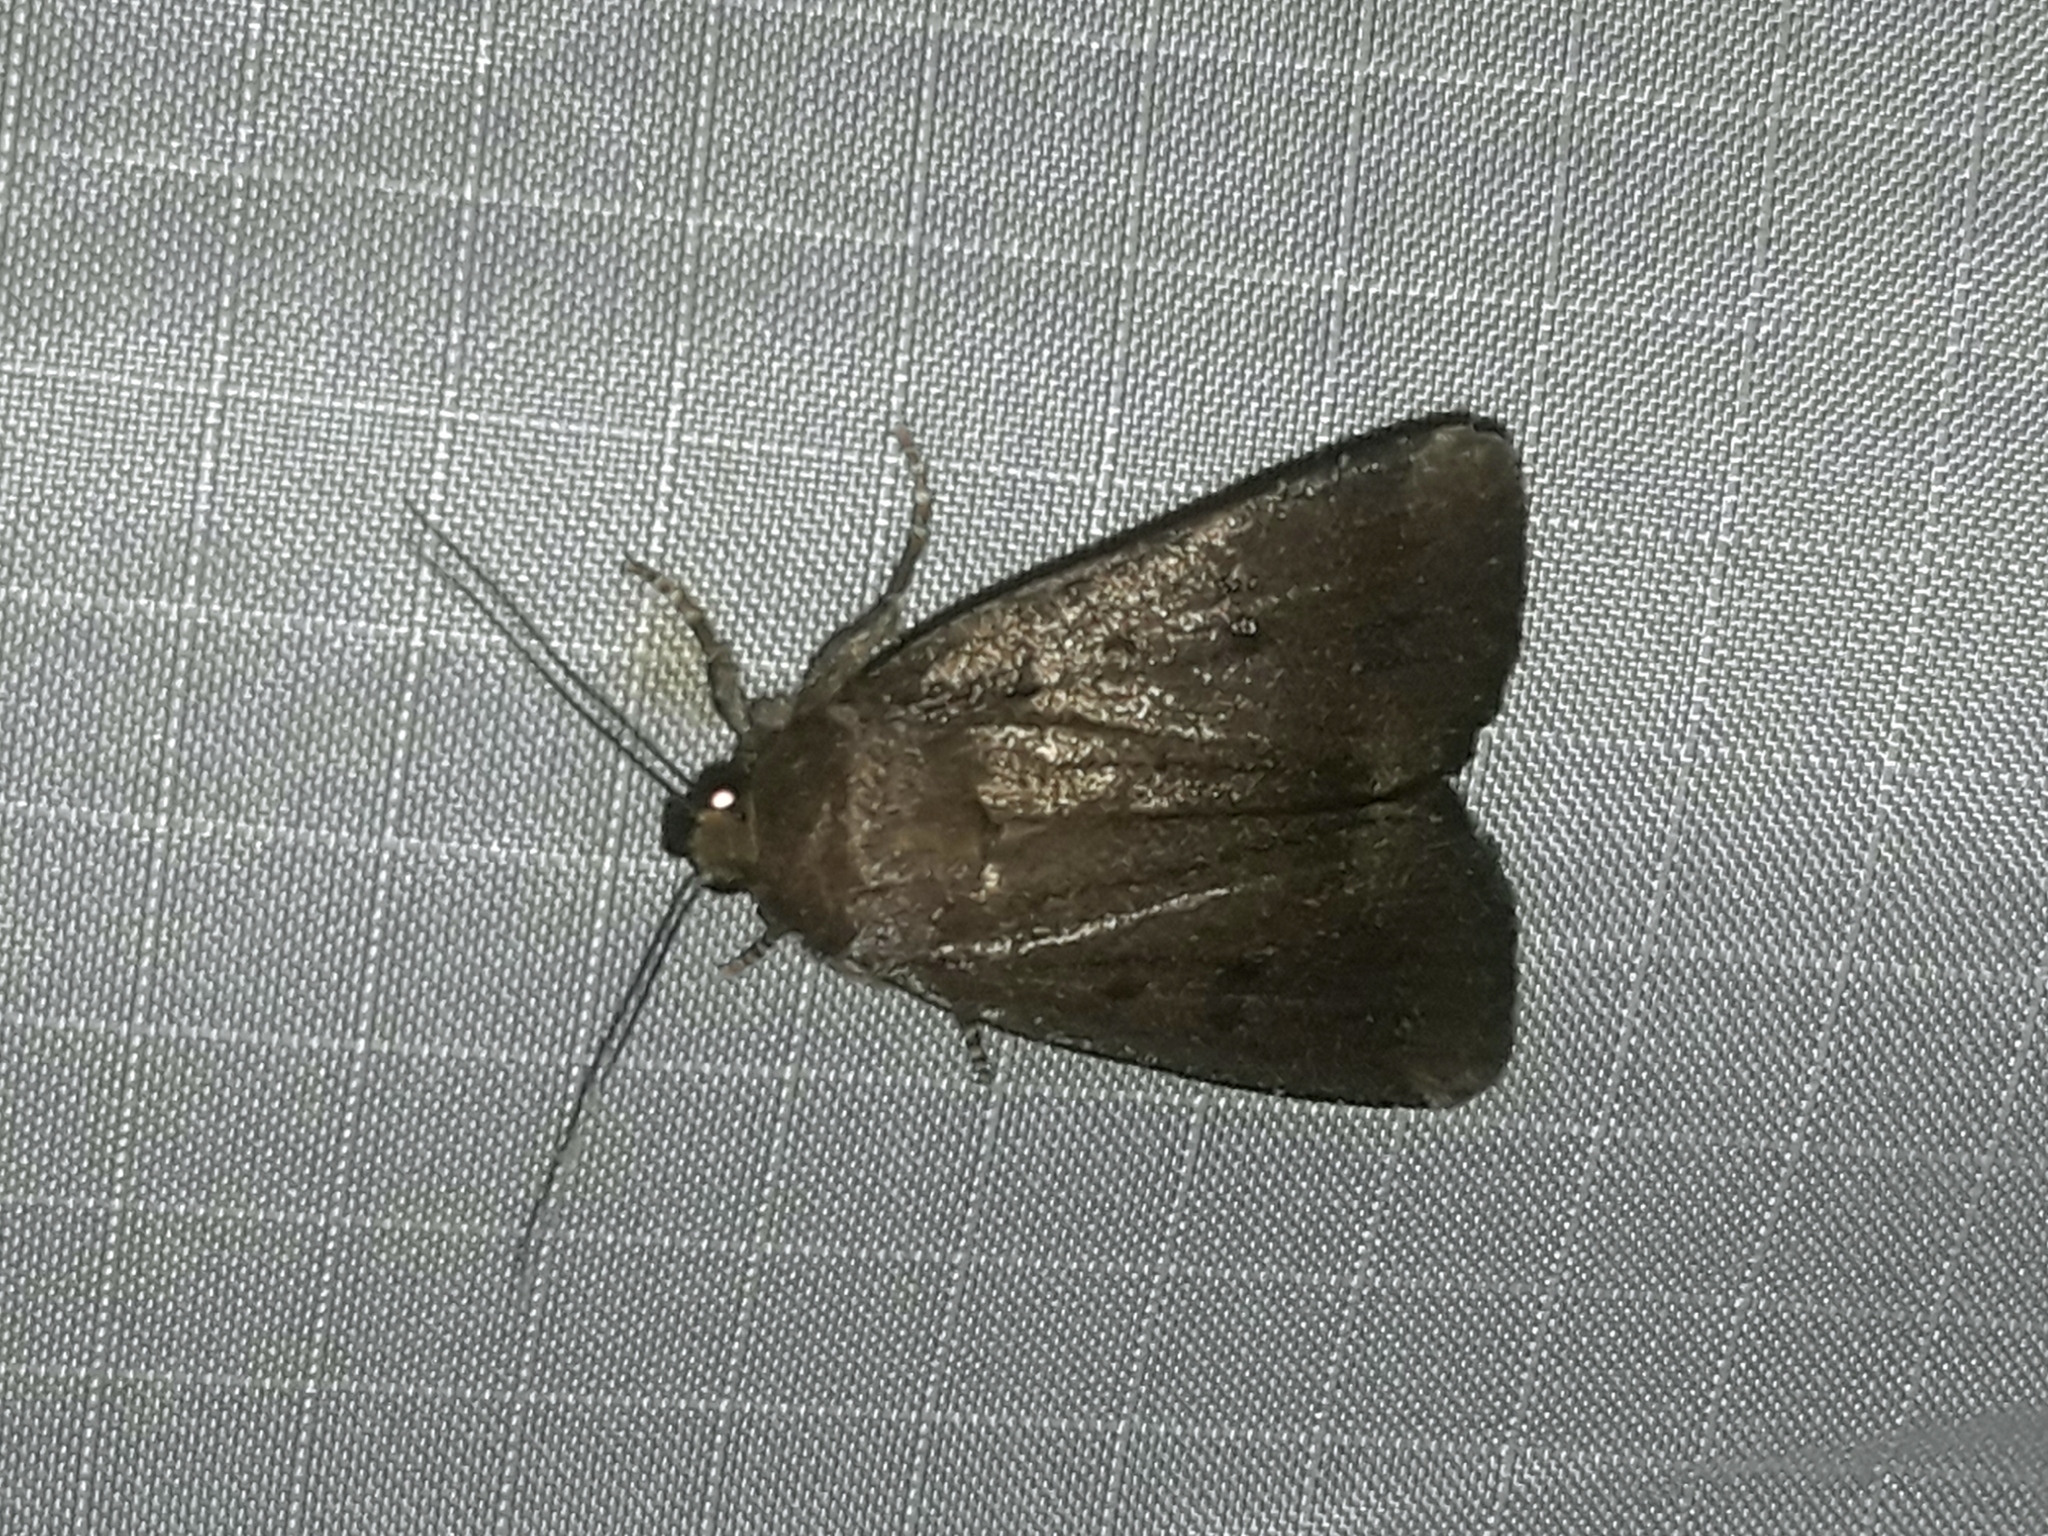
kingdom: Animalia
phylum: Arthropoda
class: Insecta
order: Lepidoptera
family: Noctuidae
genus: Amphipyra
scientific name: Amphipyra tragopoginis
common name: Mouse moth
